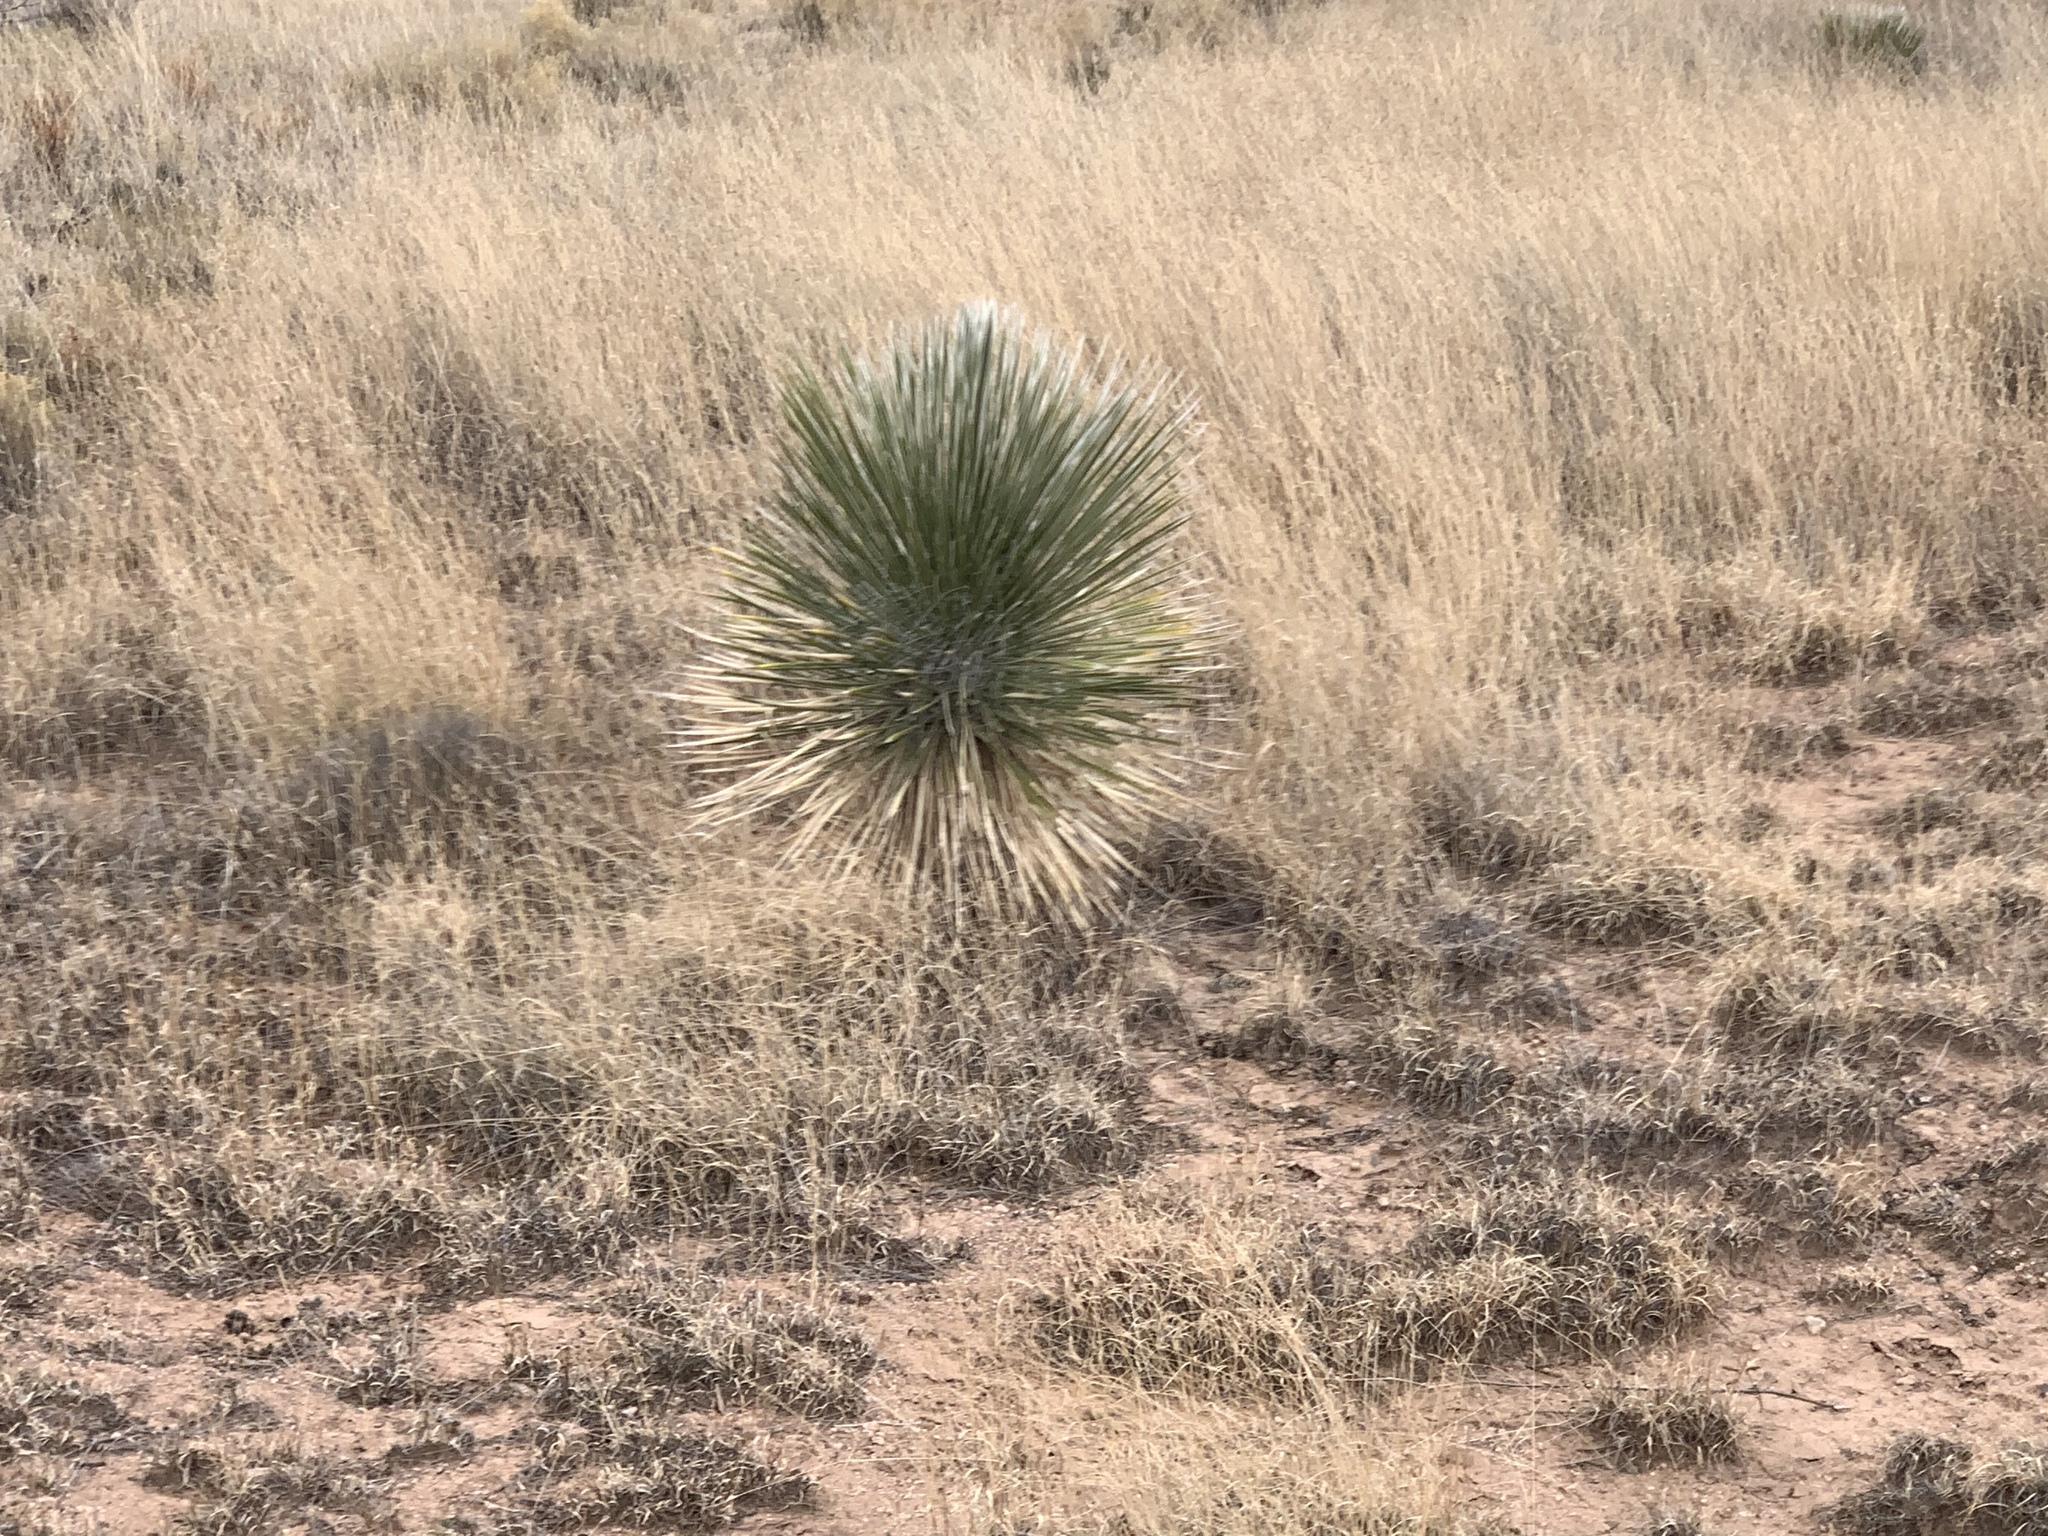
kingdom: Plantae
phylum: Tracheophyta
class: Liliopsida
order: Asparagales
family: Asparagaceae
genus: Yucca
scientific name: Yucca elata
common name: Palmella
